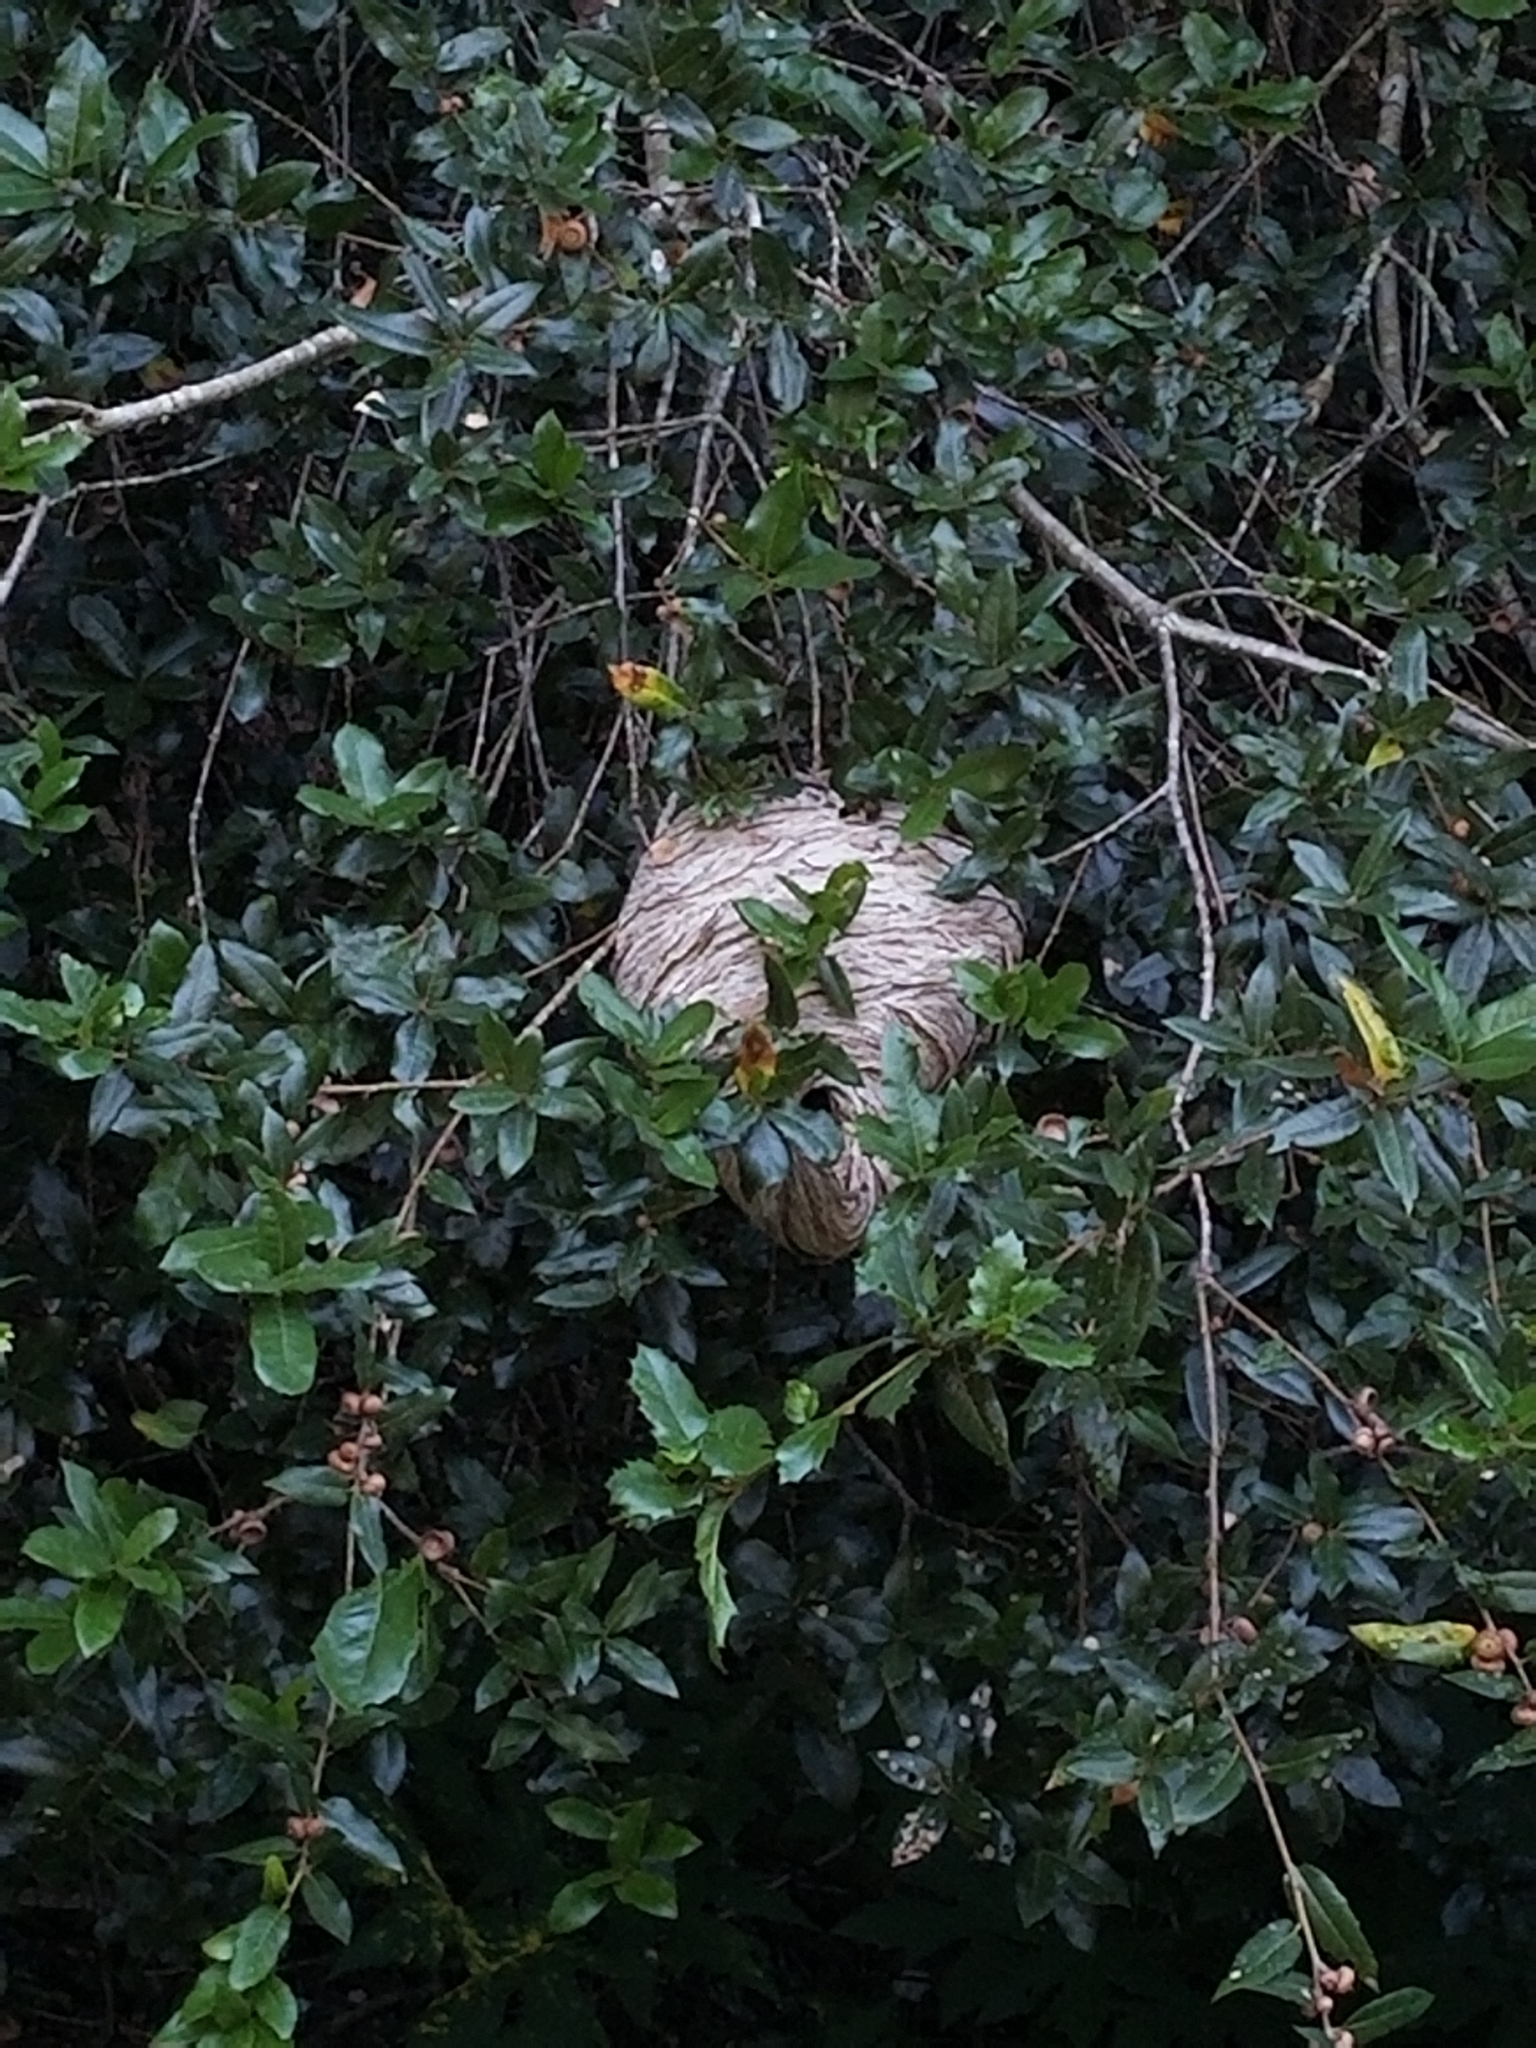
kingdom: Animalia
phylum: Arthropoda
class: Insecta
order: Hymenoptera
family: Vespidae
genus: Dolichovespula
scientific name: Dolichovespula
